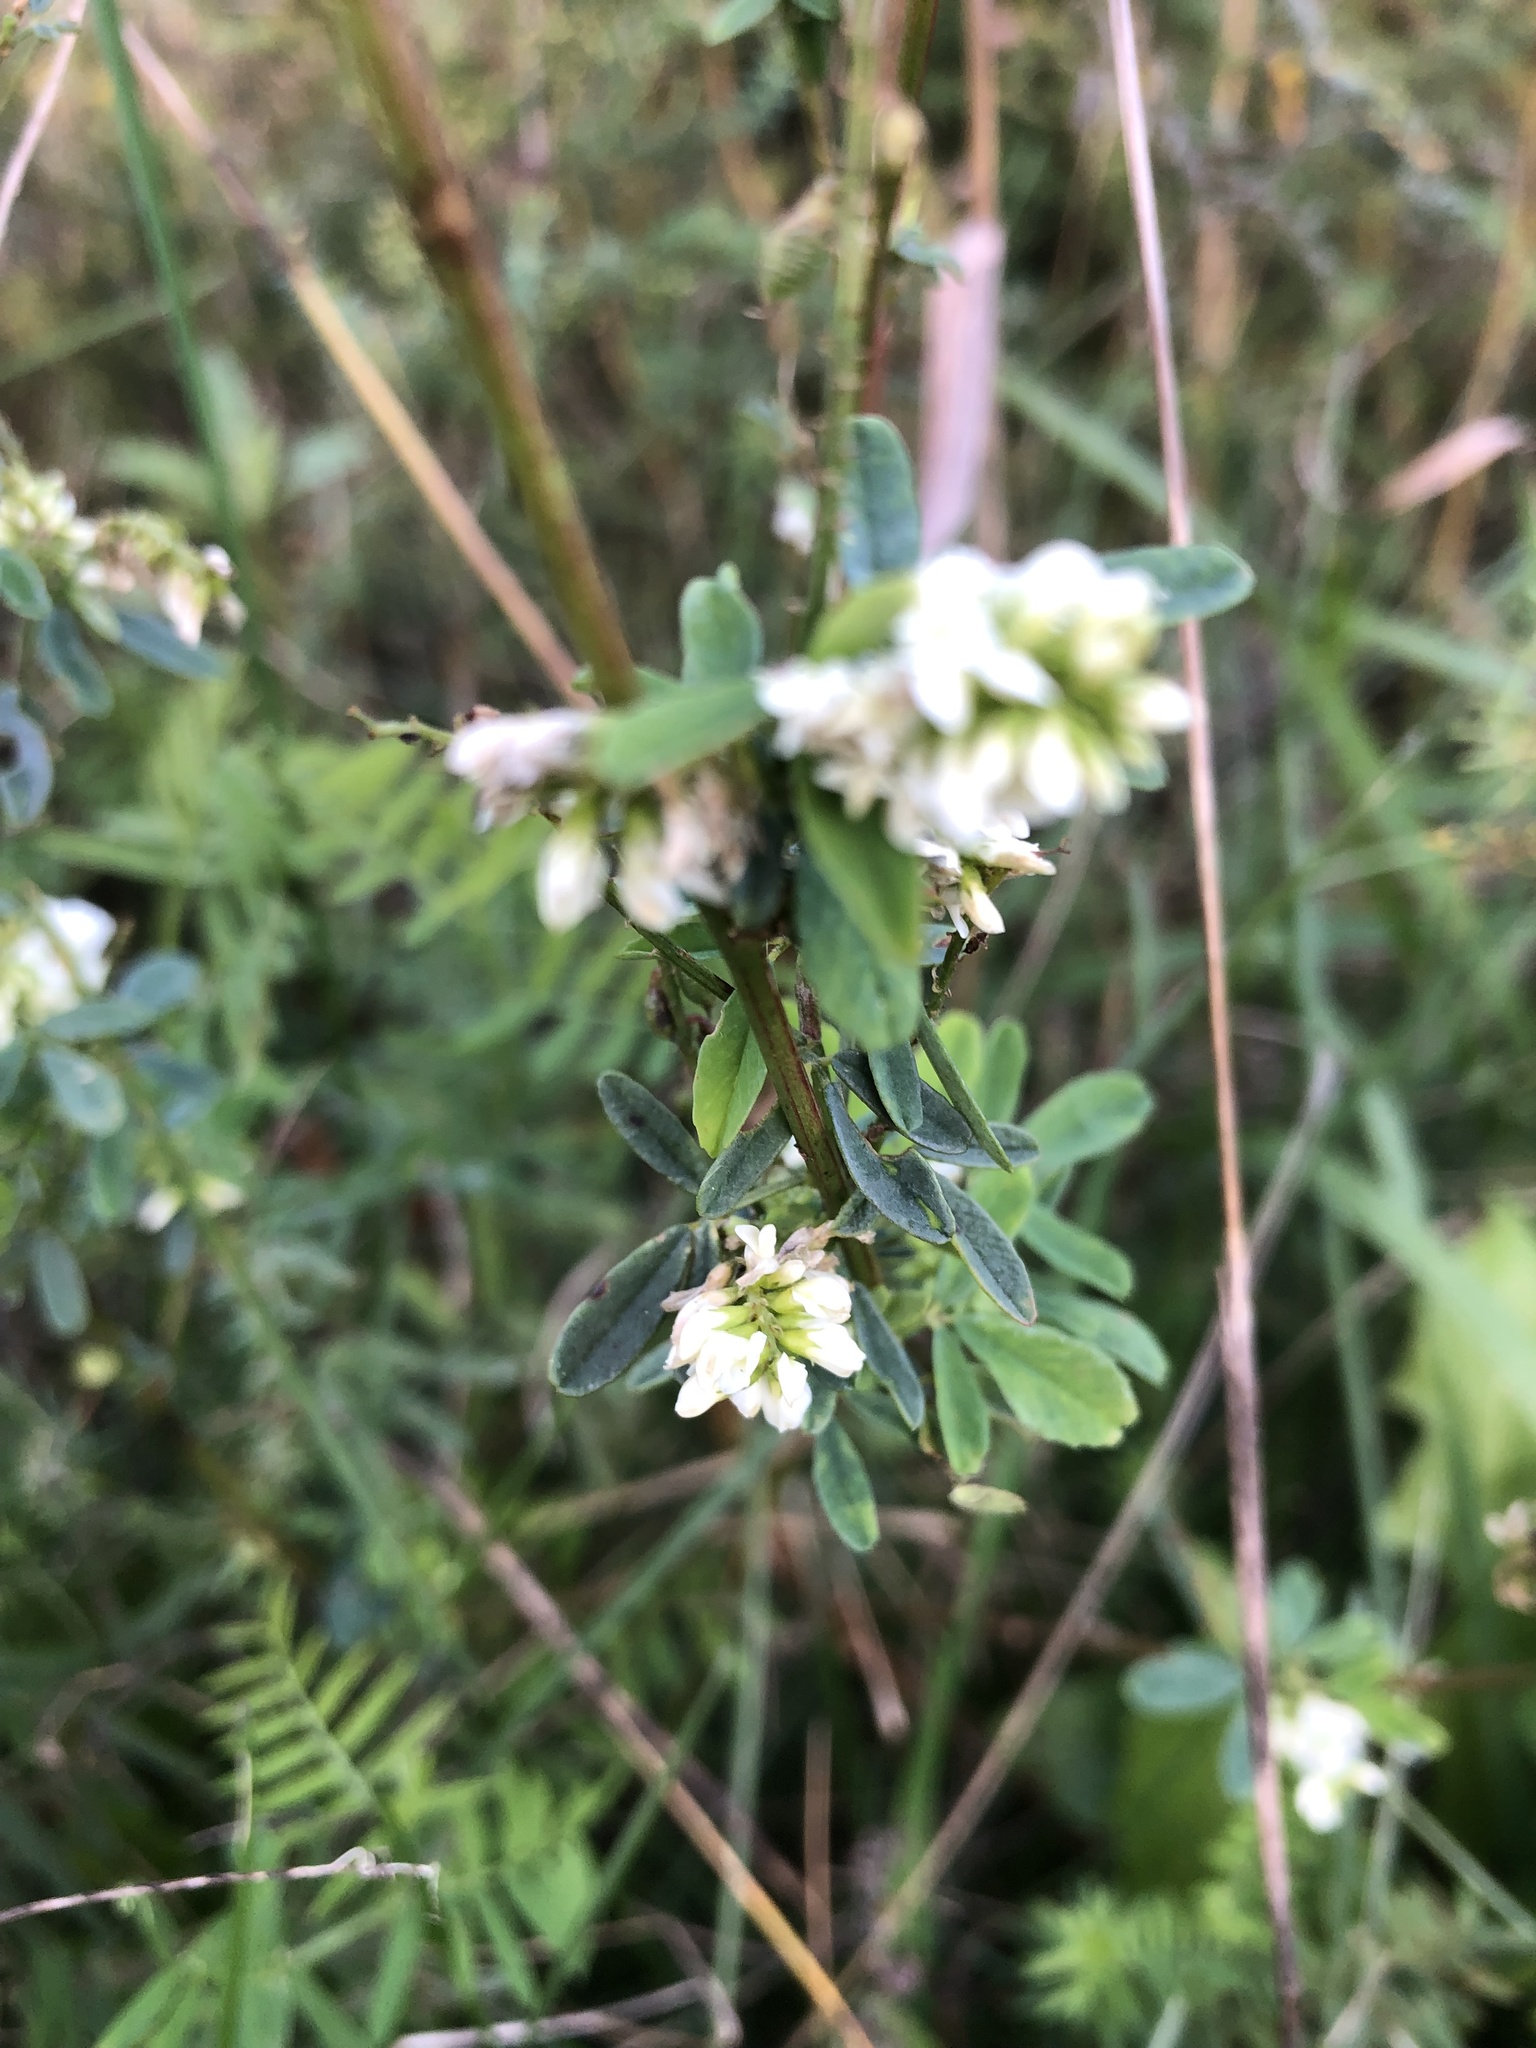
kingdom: Plantae
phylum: Tracheophyta
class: Magnoliopsida
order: Fabales
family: Fabaceae
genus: Melilotus
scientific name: Melilotus albus
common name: White melilot
